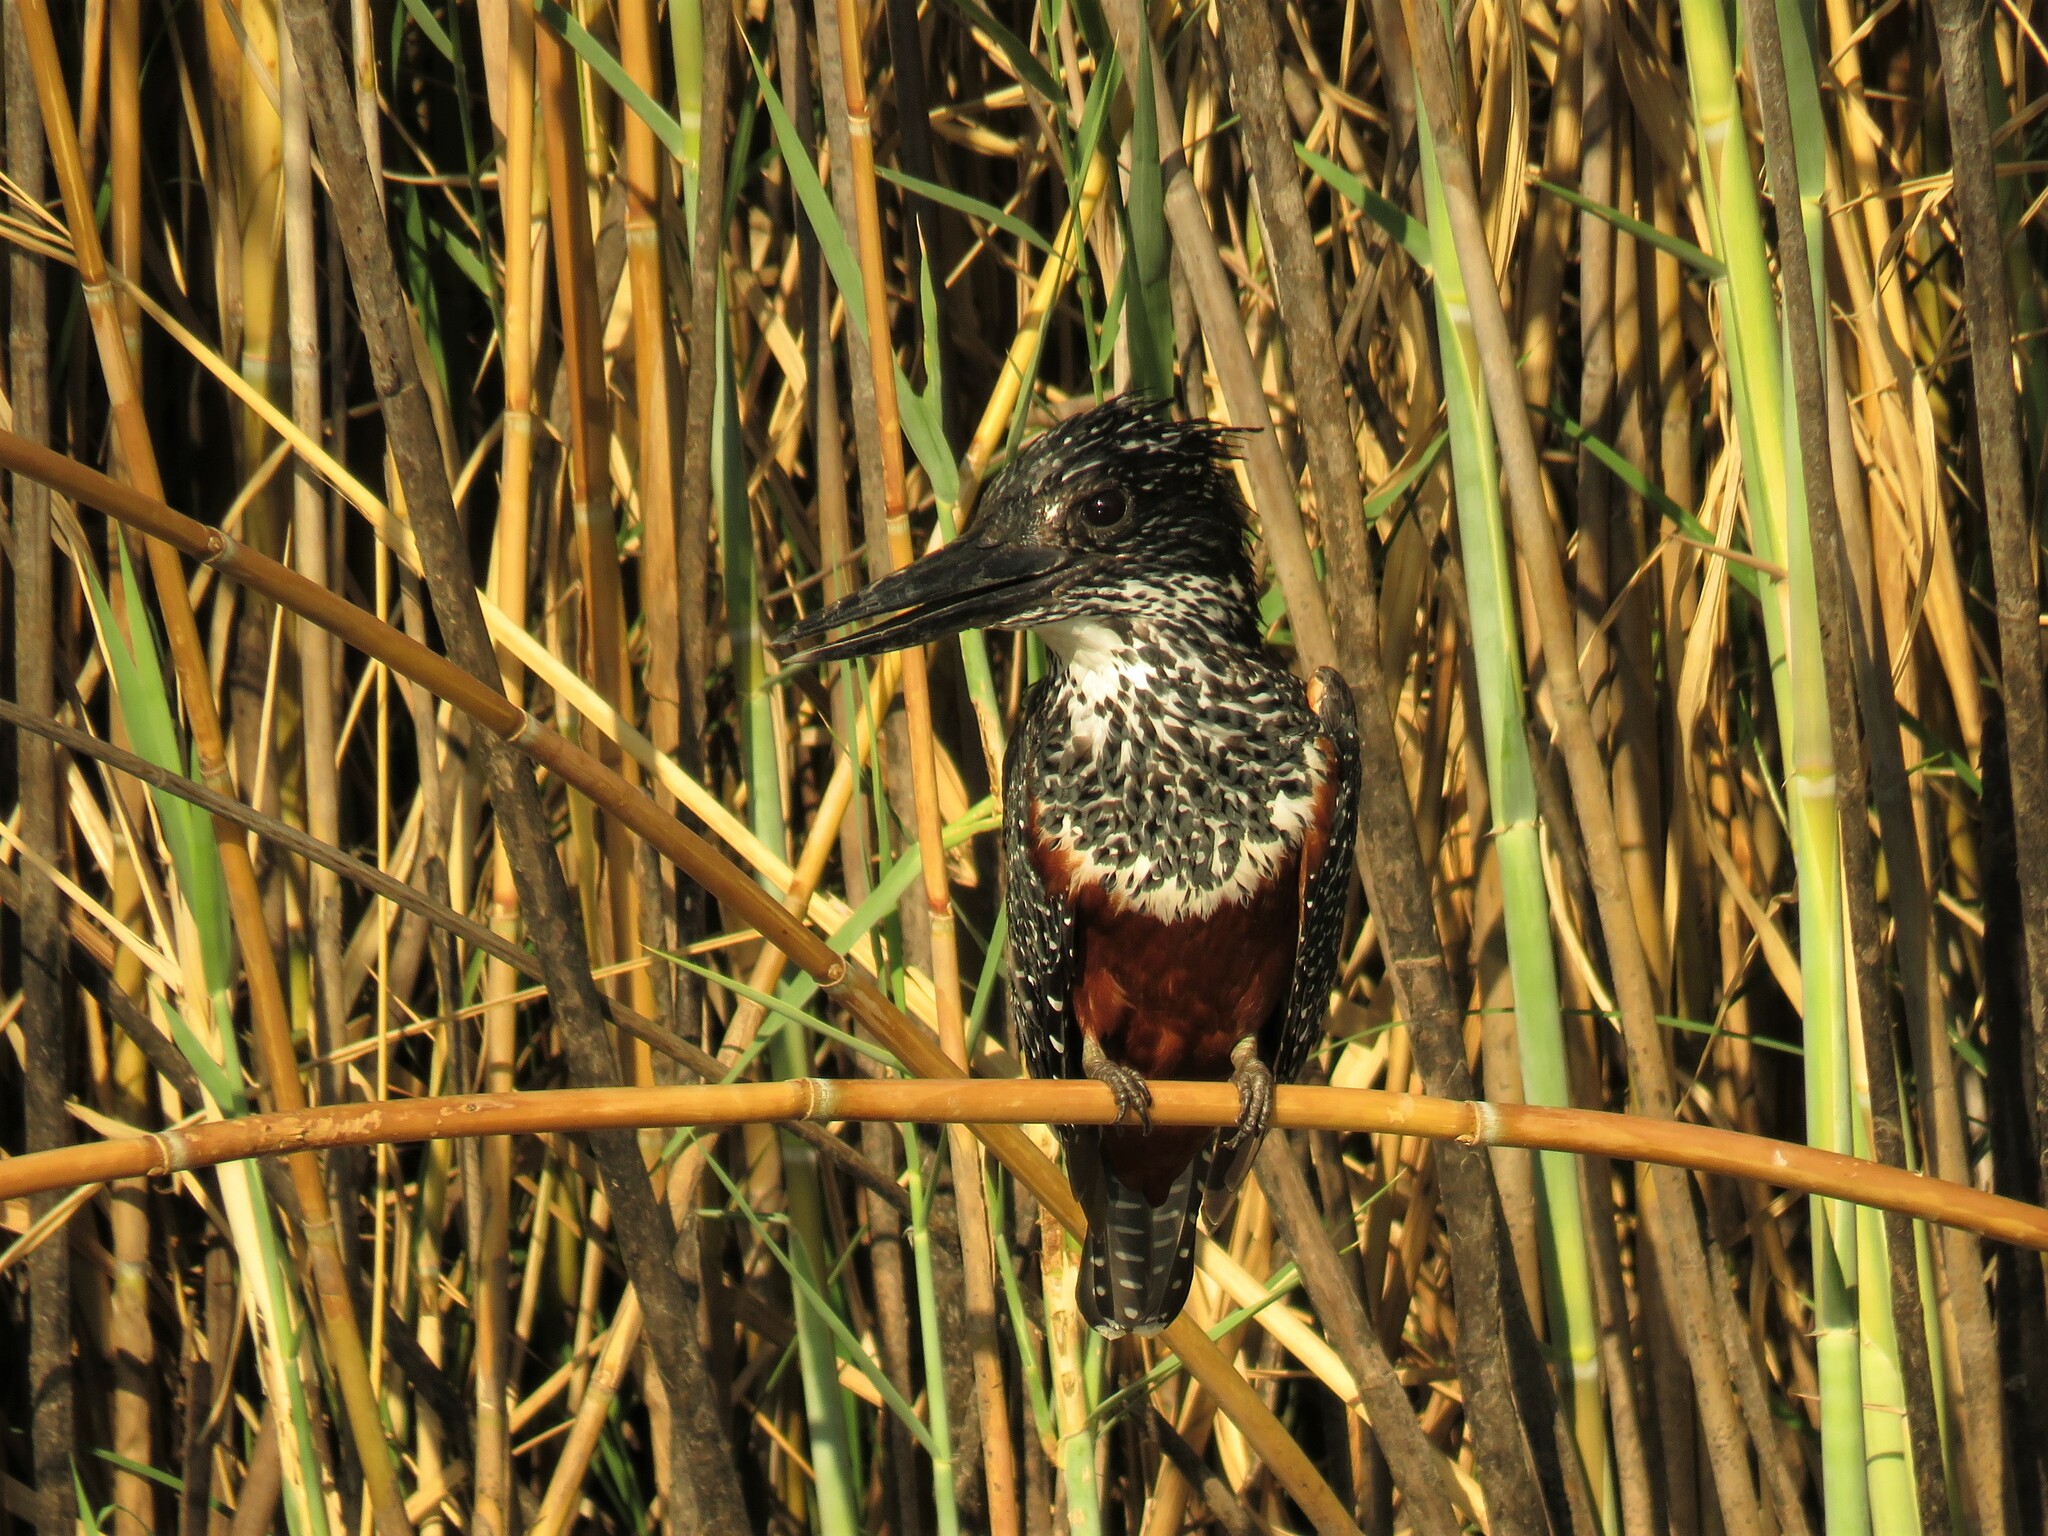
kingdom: Animalia
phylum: Chordata
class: Aves
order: Coraciiformes
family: Alcedinidae
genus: Megaceryle
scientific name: Megaceryle maxima
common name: Giant kingfisher
